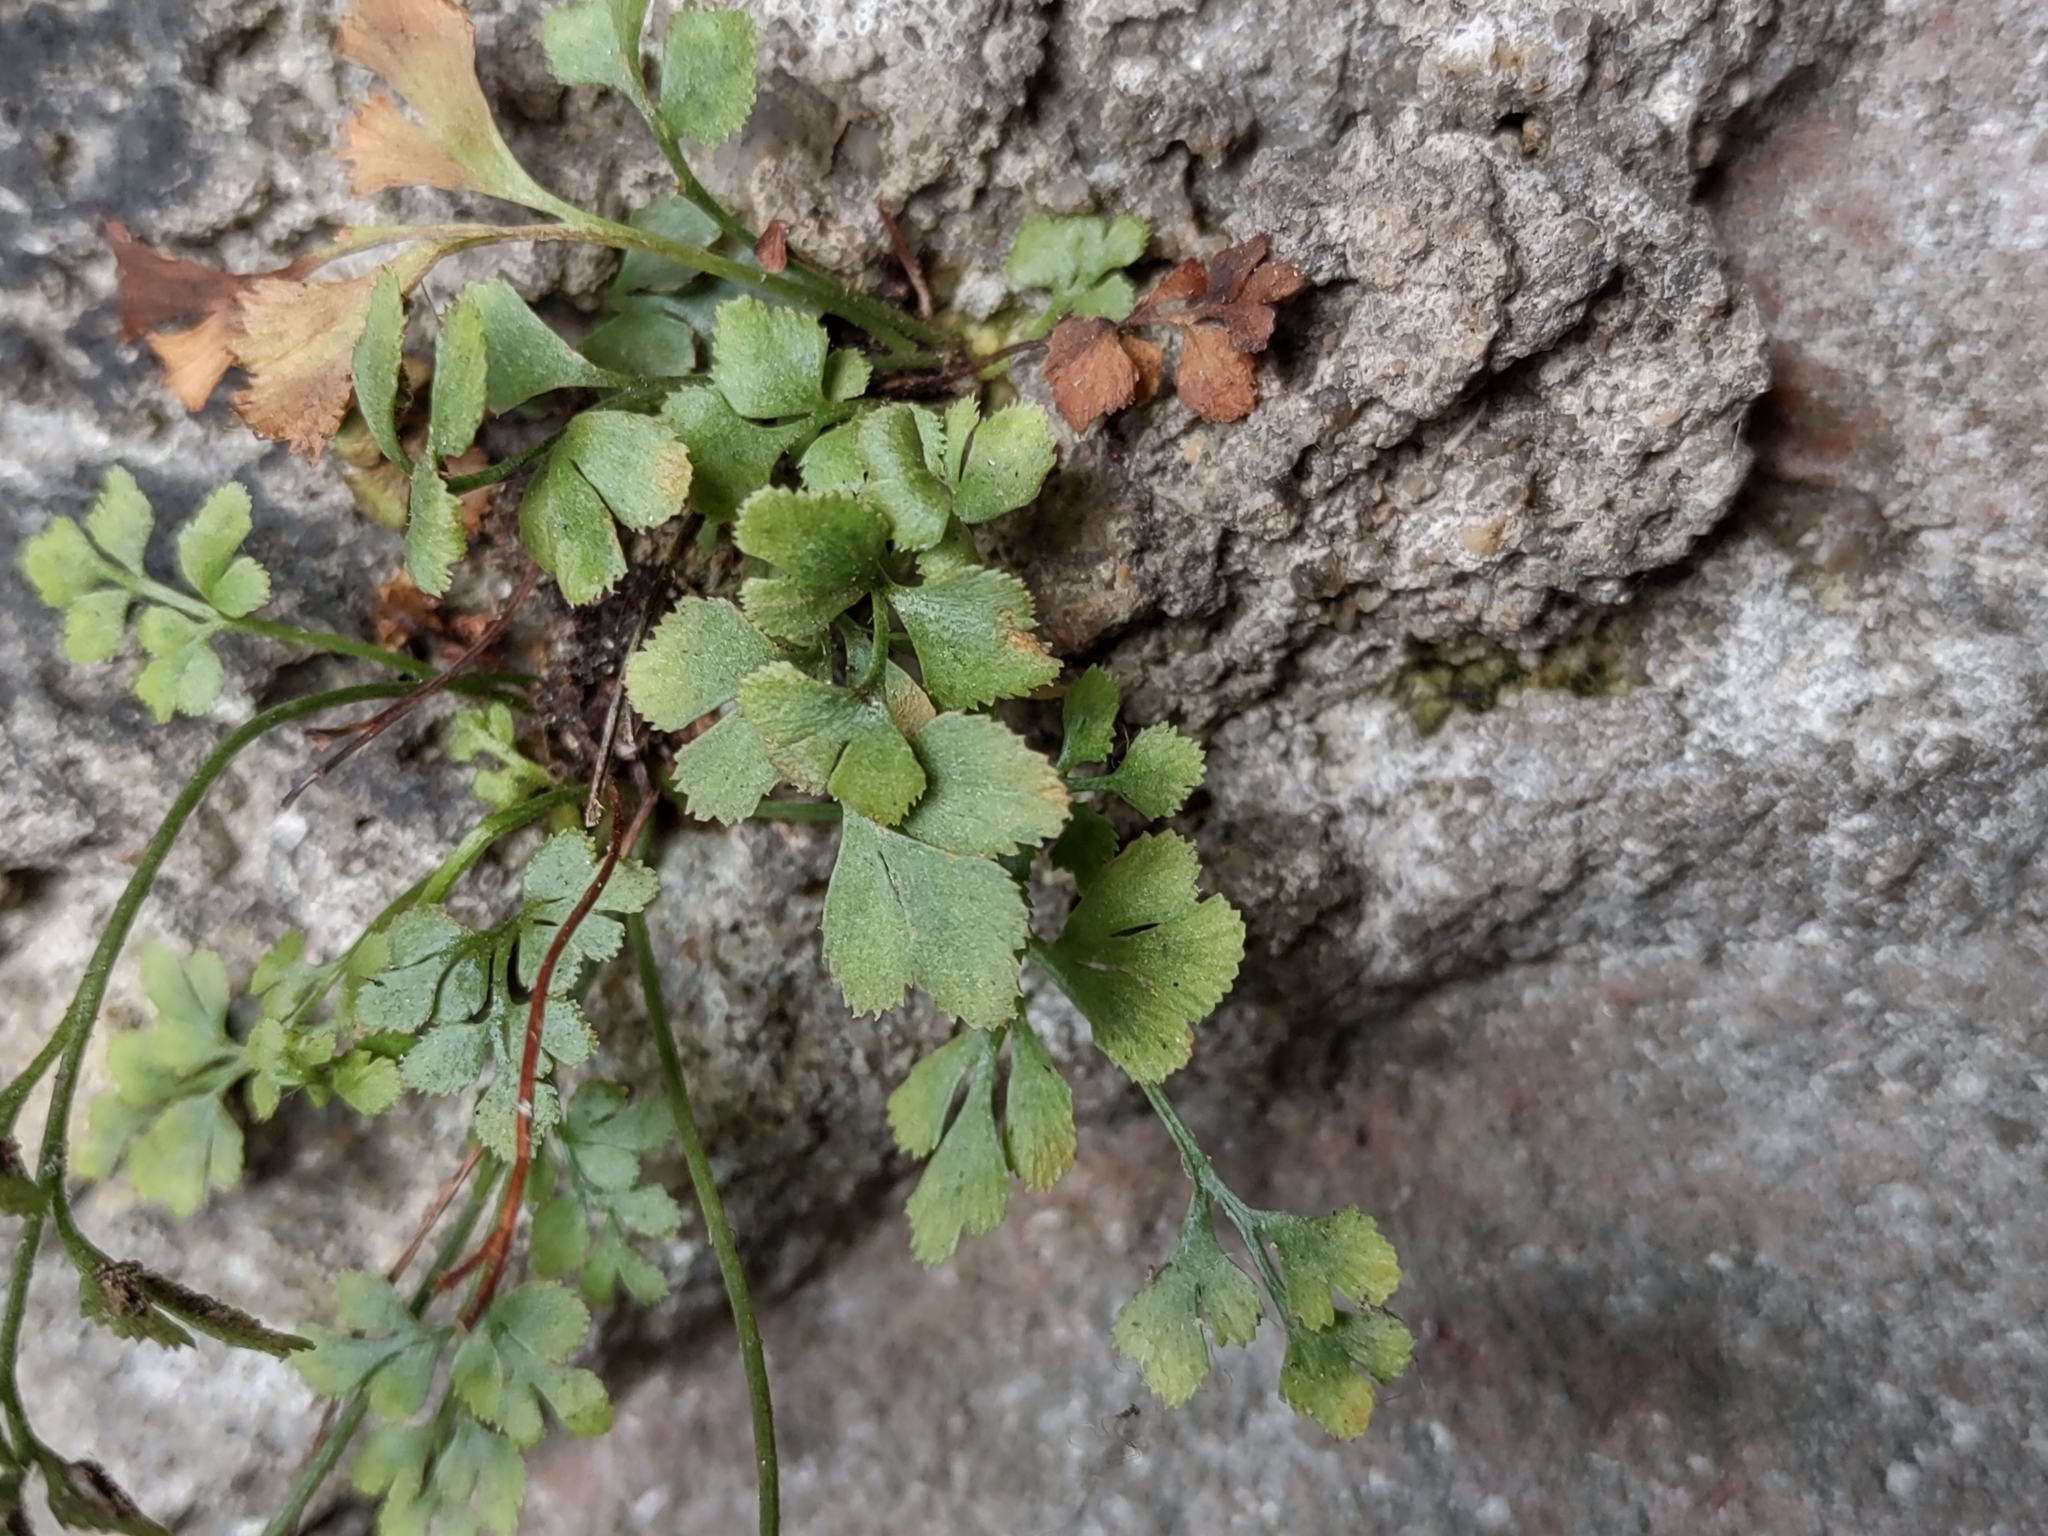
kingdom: Plantae
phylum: Tracheophyta
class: Polypodiopsida
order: Polypodiales
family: Aspleniaceae
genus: Asplenium
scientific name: Asplenium ruta-muraria
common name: Wall-rue
